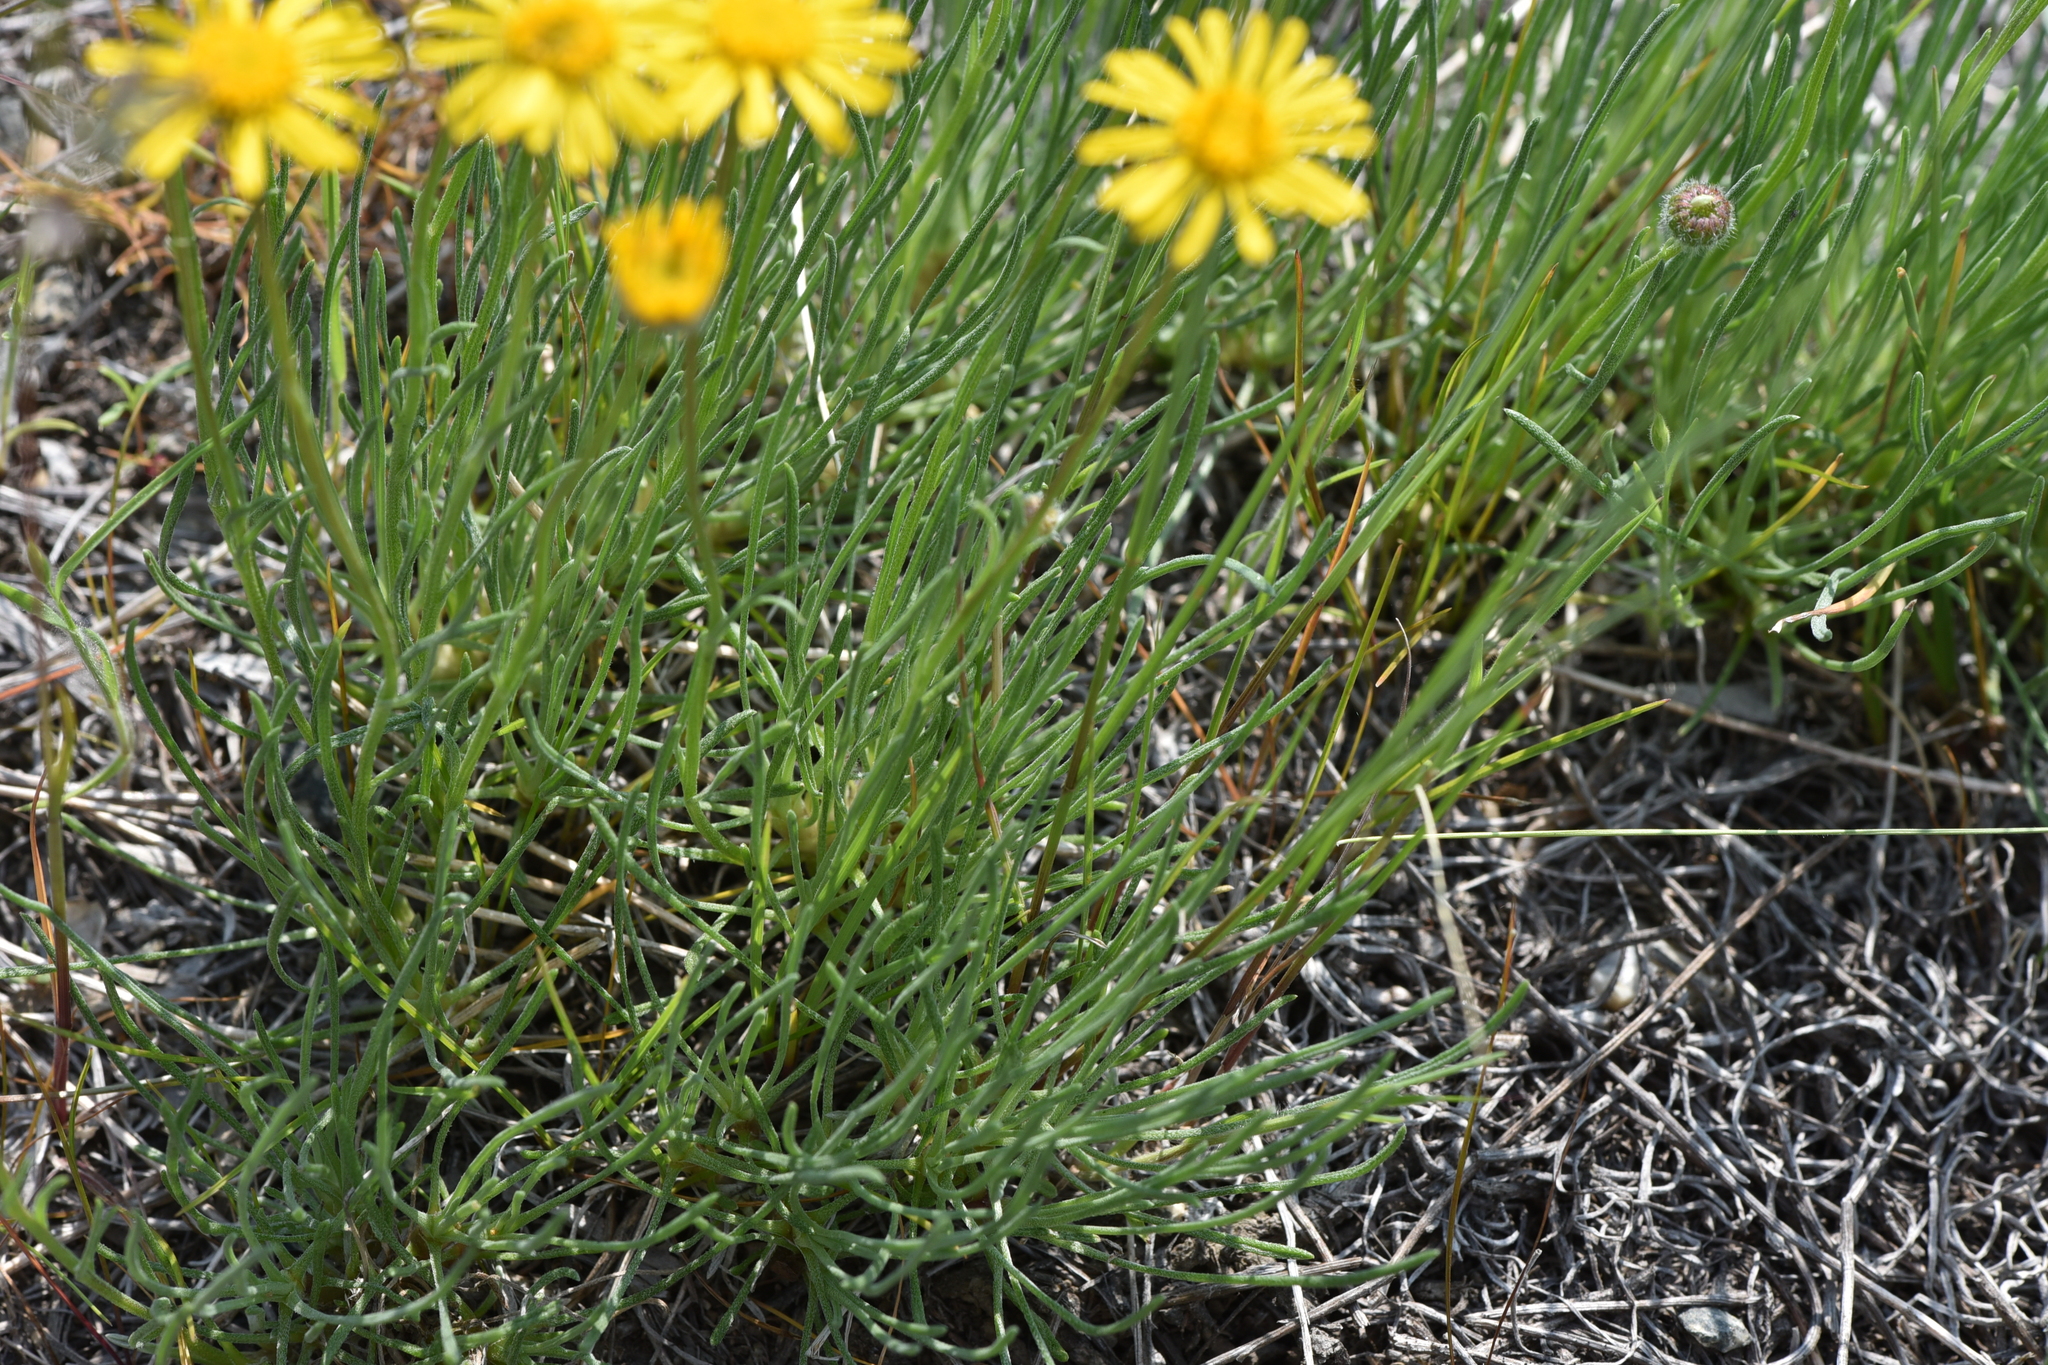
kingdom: Plantae
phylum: Tracheophyta
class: Magnoliopsida
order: Asterales
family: Asteraceae
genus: Erigeron
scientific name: Erigeron linearis
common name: Desert yellow fleabane
